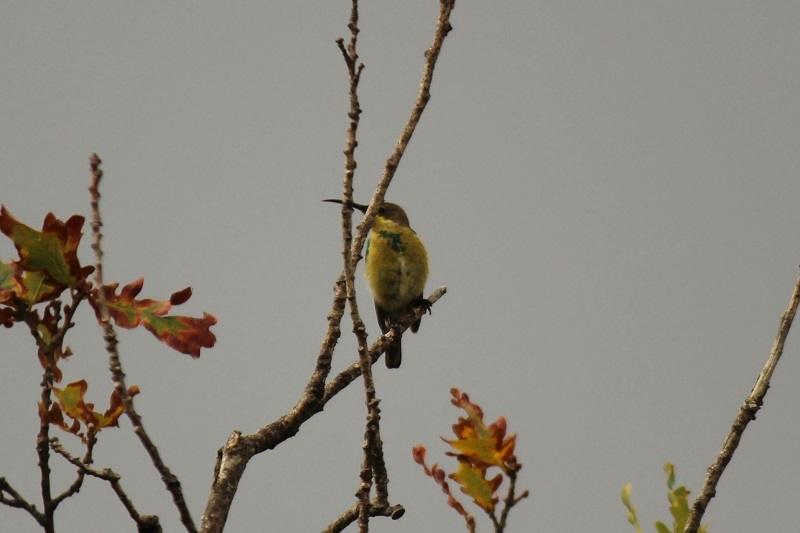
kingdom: Animalia
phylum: Chordata
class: Aves
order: Passeriformes
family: Nectariniidae
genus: Nectarinia
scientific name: Nectarinia famosa
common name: Malachite sunbird
